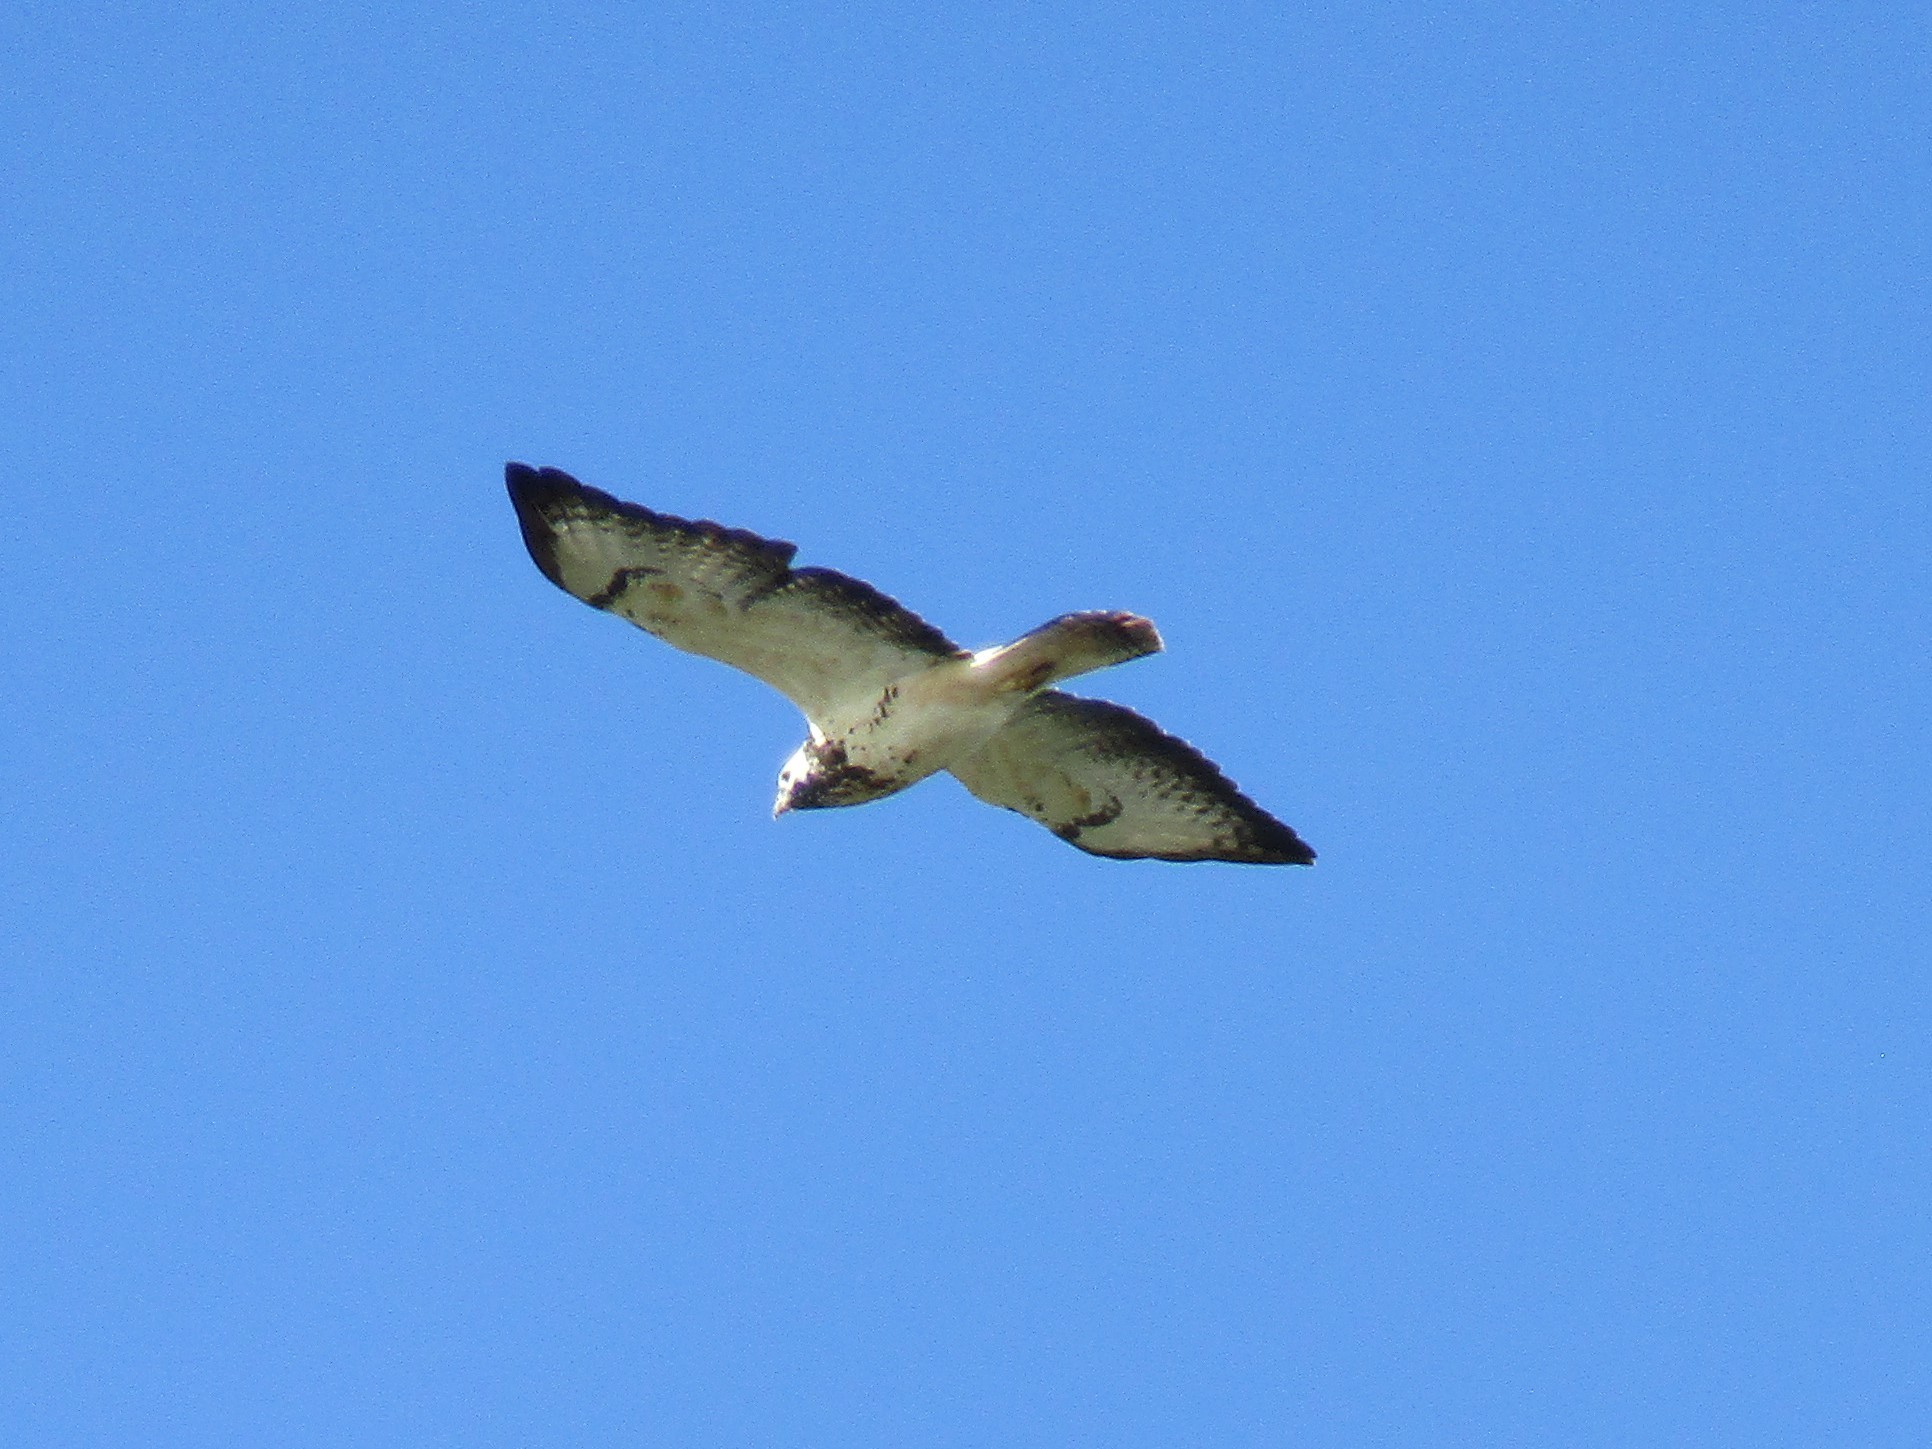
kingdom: Animalia
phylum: Chordata
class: Aves
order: Accipitriformes
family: Accipitridae
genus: Buteo
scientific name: Buteo buteo
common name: Common buzzard
